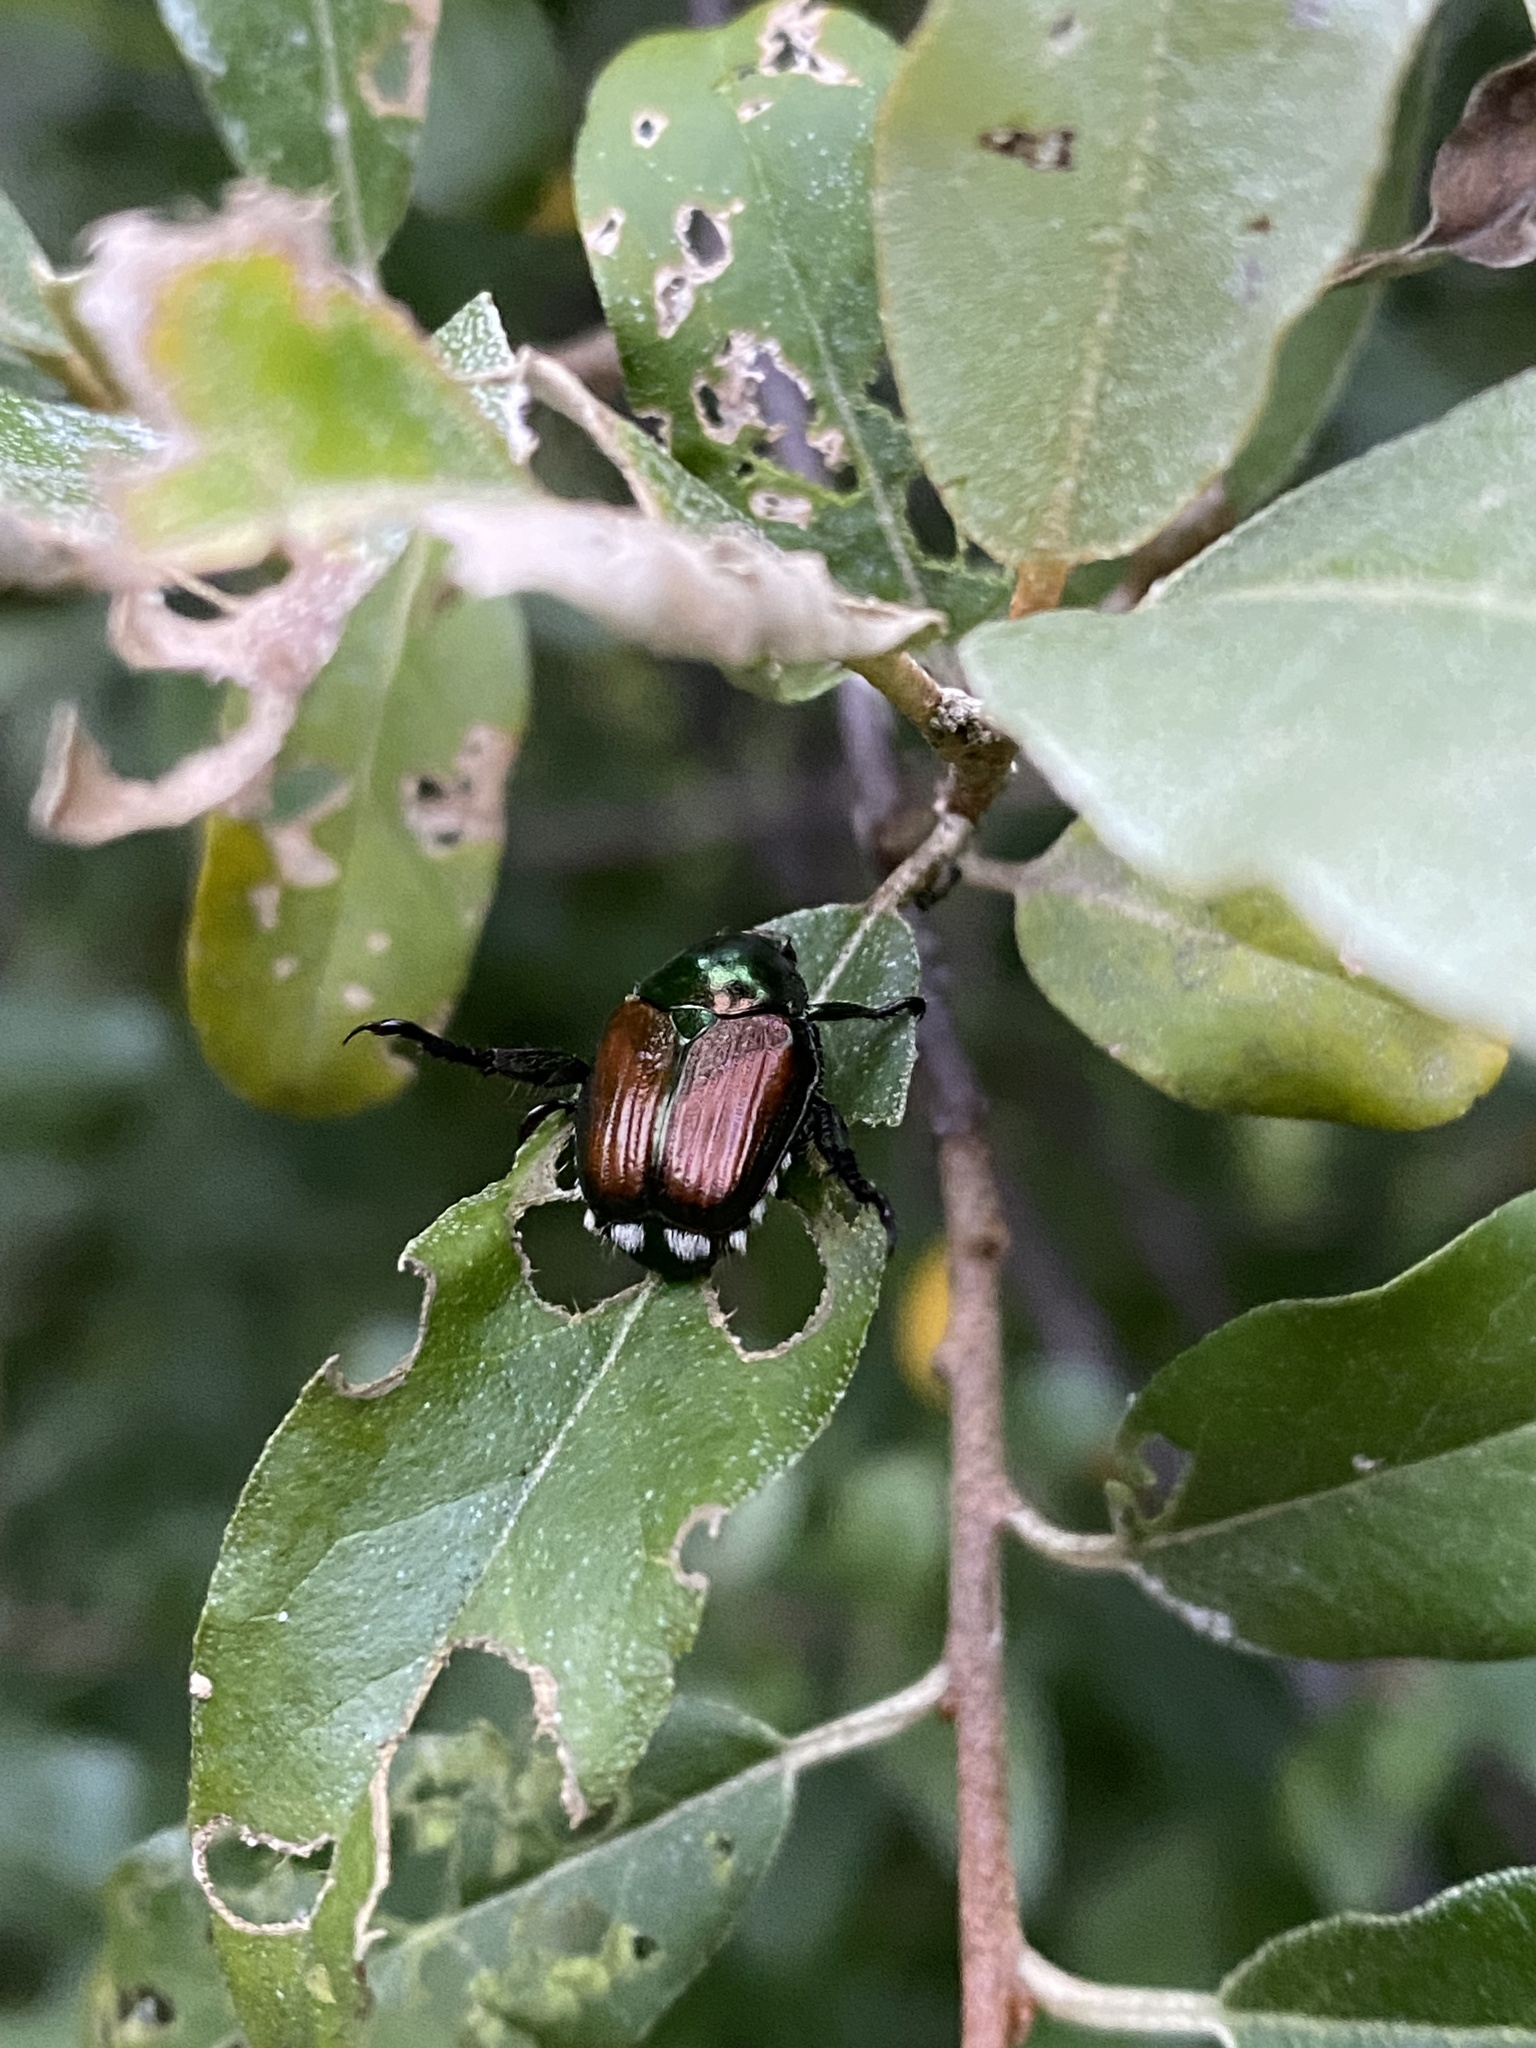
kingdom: Animalia
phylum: Arthropoda
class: Insecta
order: Coleoptera
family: Scarabaeidae
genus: Popillia
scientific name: Popillia japonica
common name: Japanese beetle
